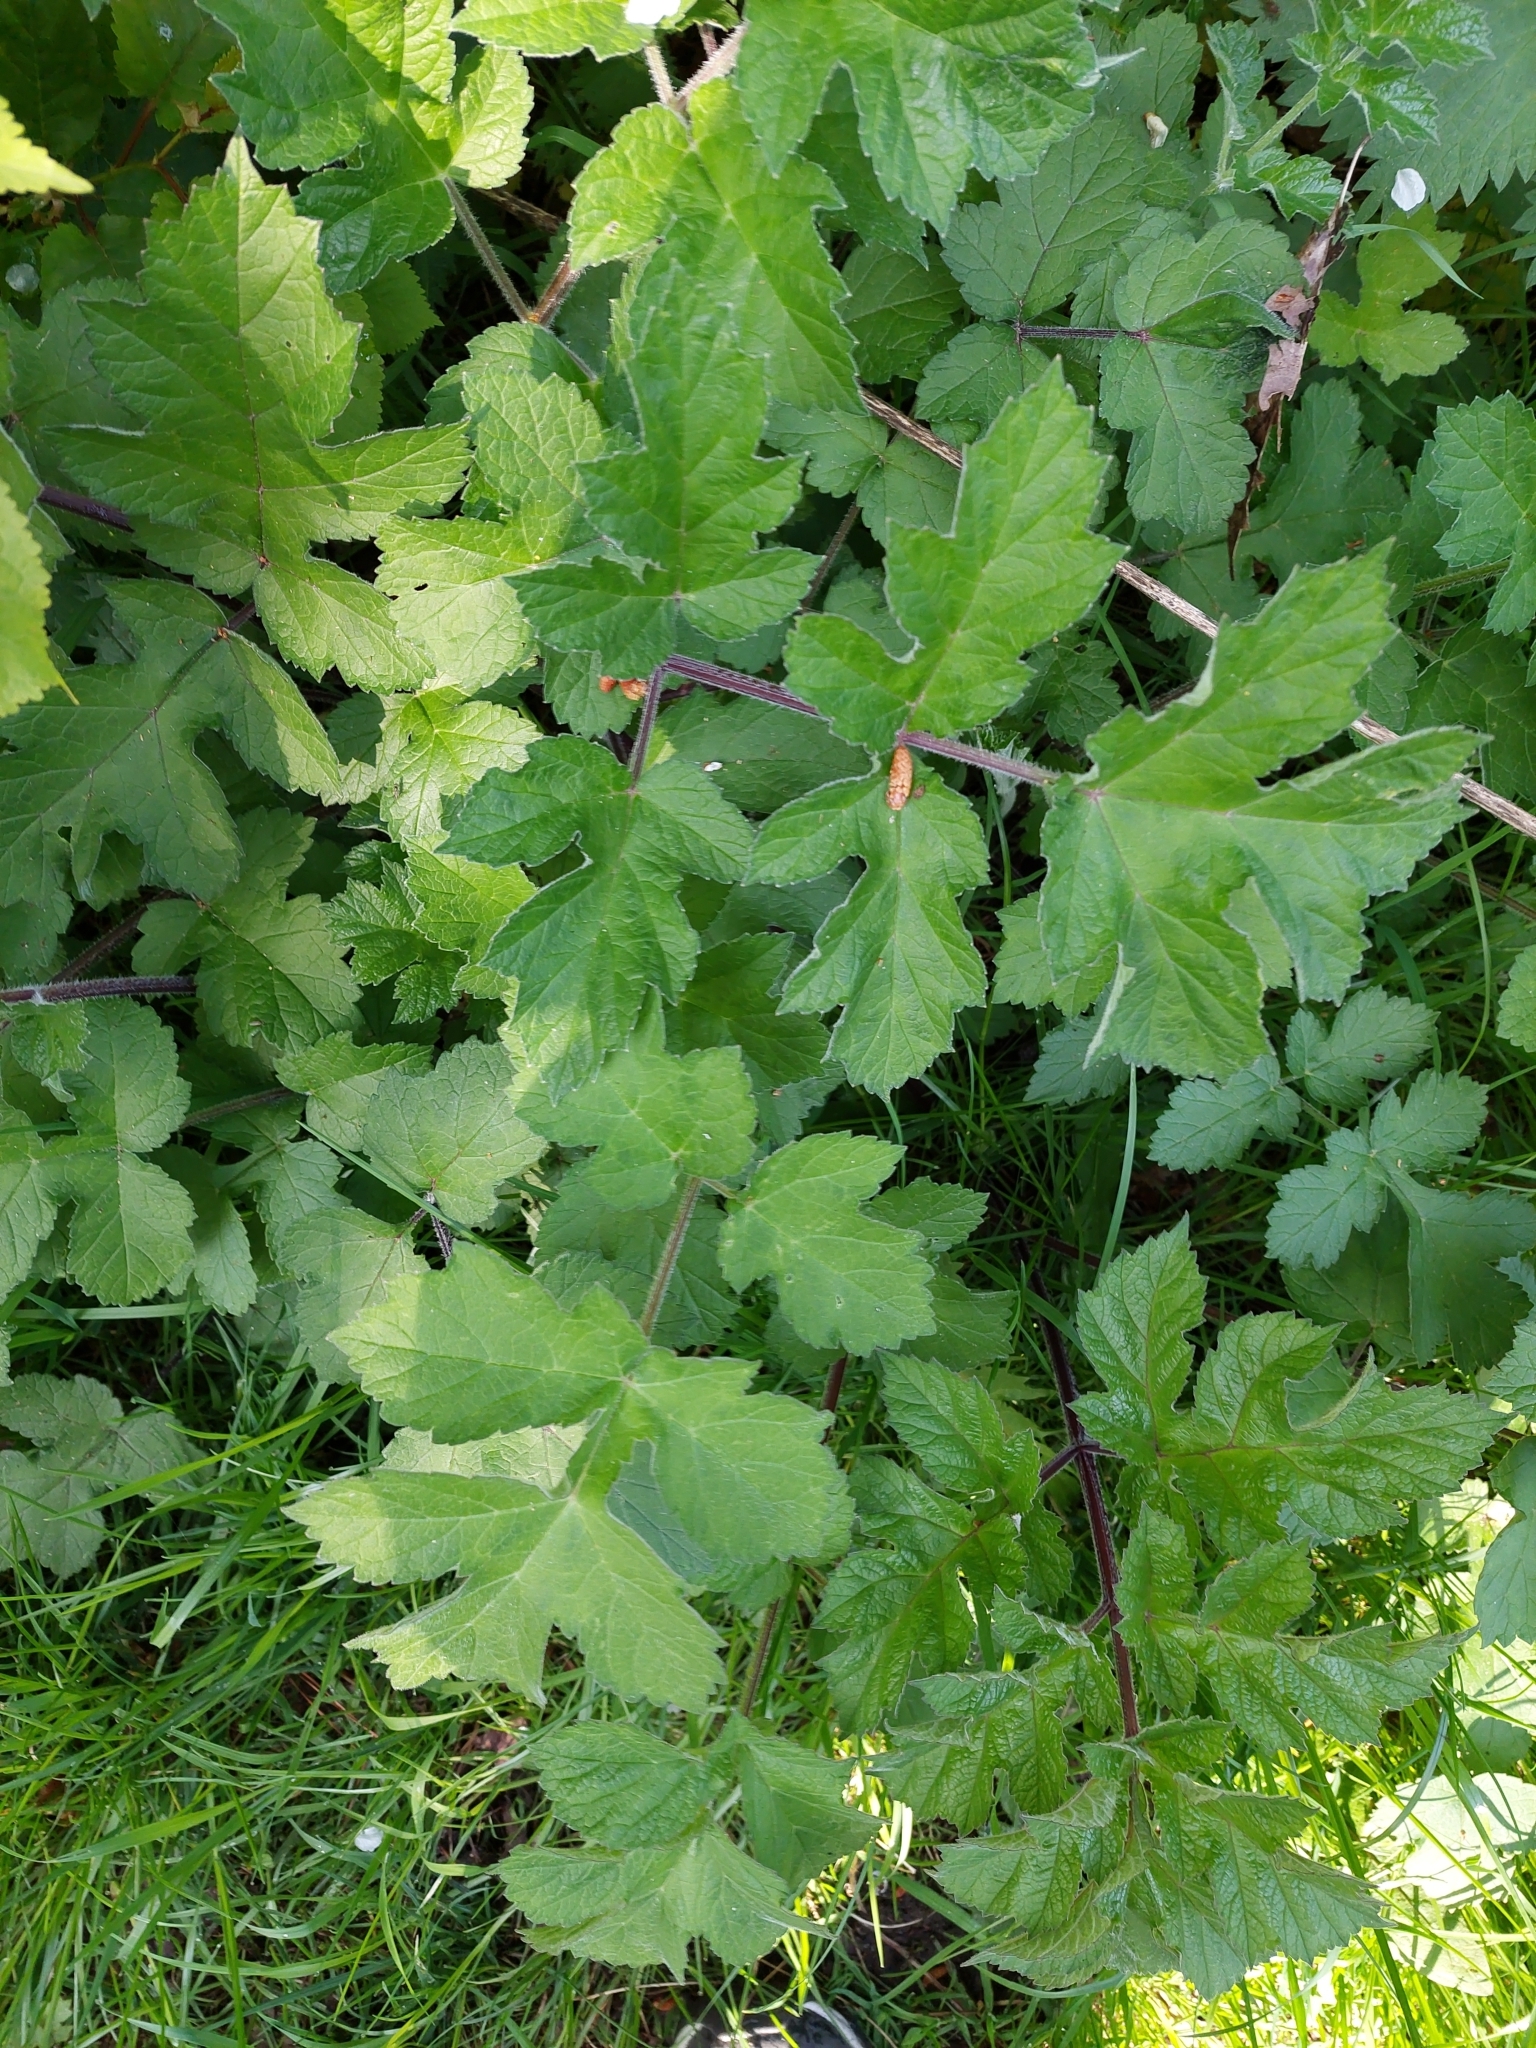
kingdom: Plantae
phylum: Tracheophyta
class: Magnoliopsida
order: Apiales
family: Apiaceae
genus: Heracleum
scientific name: Heracleum sphondylium
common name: Hogweed
